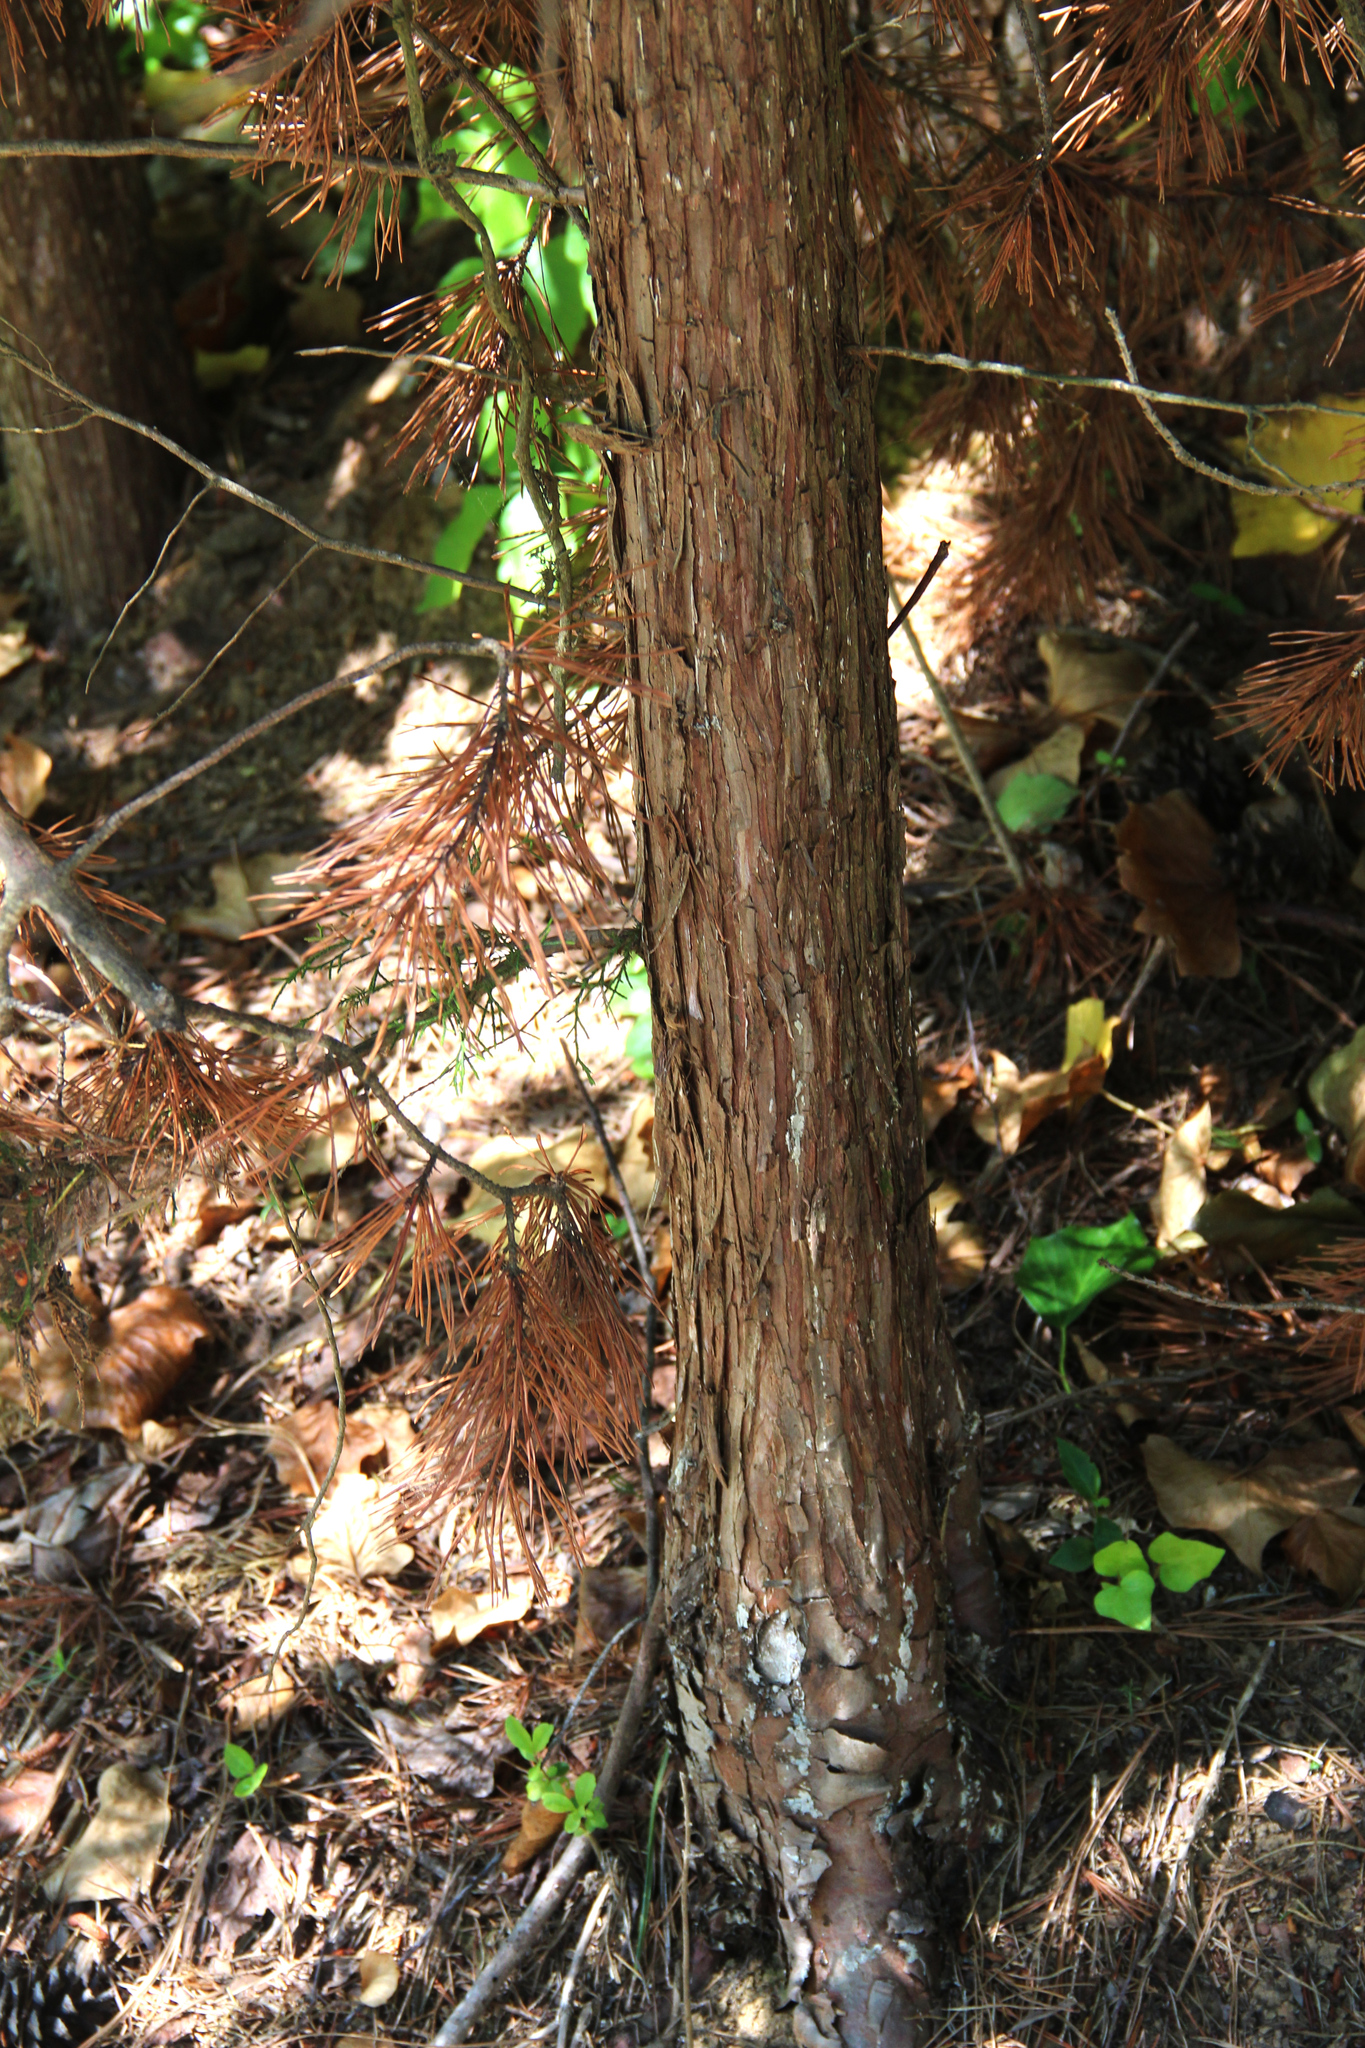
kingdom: Plantae
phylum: Tracheophyta
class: Pinopsida
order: Pinales
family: Cupressaceae
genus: Juniperus
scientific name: Juniperus virginiana
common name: Red juniper
